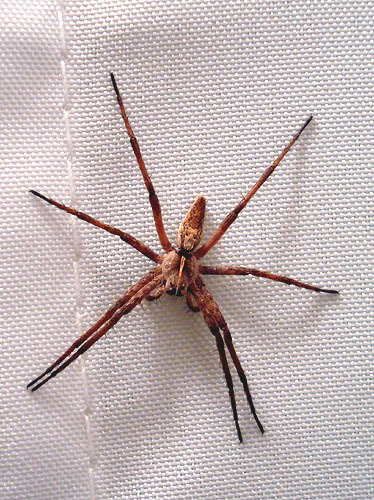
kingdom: Animalia
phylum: Arthropoda
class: Arachnida
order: Araneae
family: Pisauridae
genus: Pisaura
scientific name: Pisaura mirabilis
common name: Tent spider
